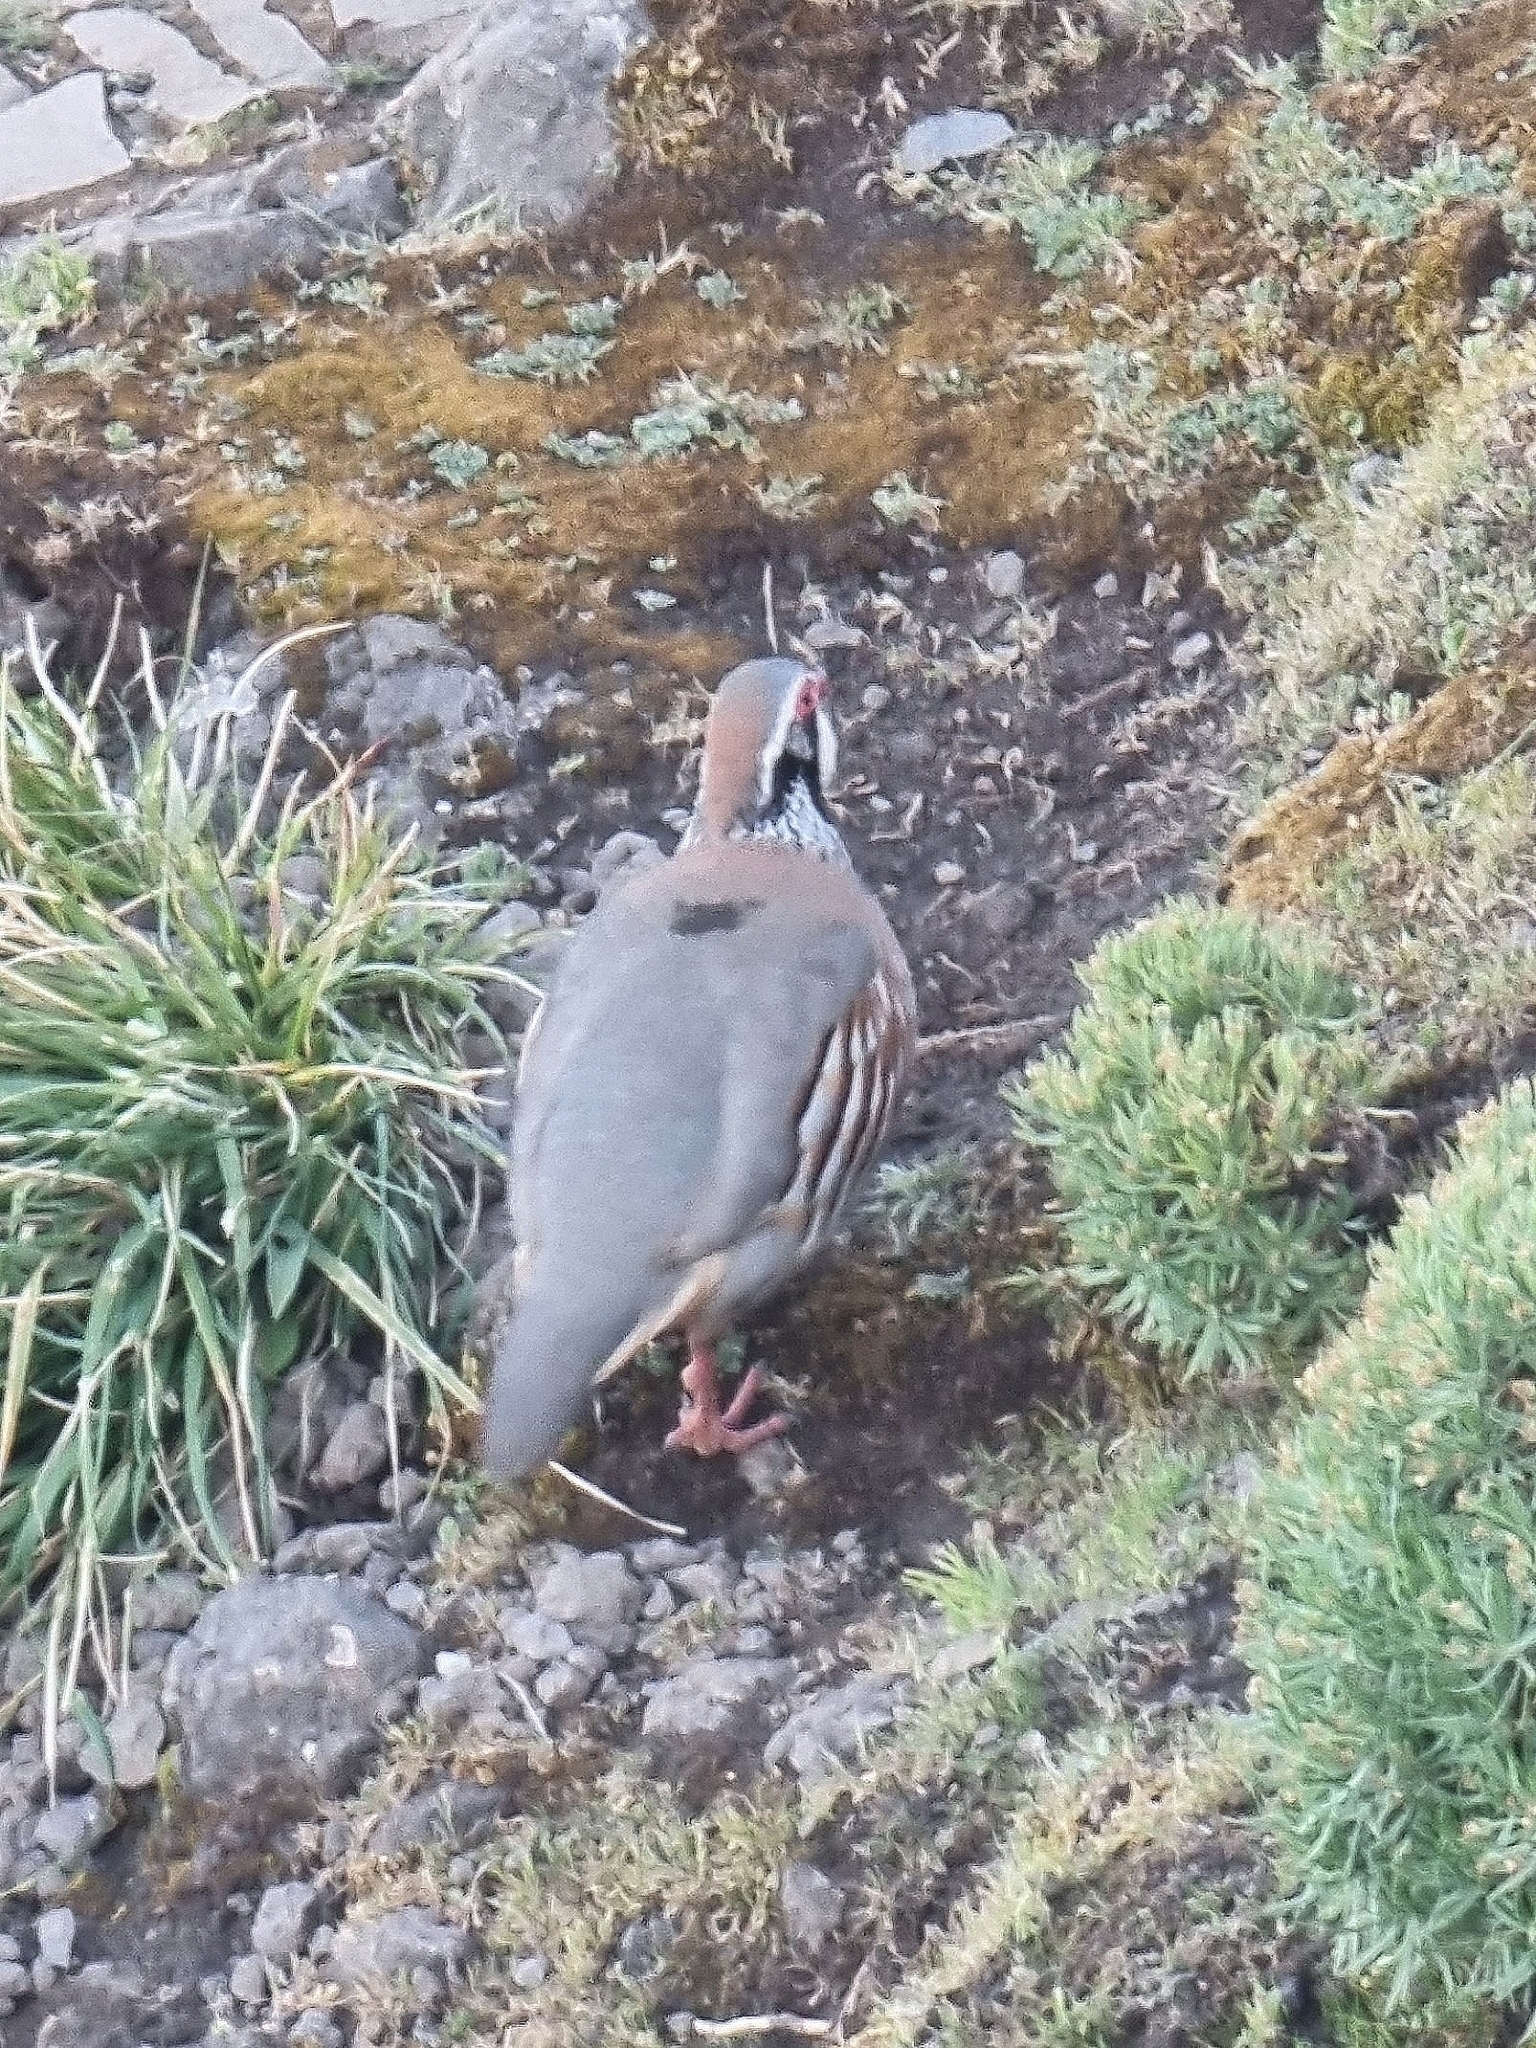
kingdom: Animalia
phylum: Chordata
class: Aves
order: Galliformes
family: Phasianidae
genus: Alectoris
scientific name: Alectoris rufa
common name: Red-legged partridge
